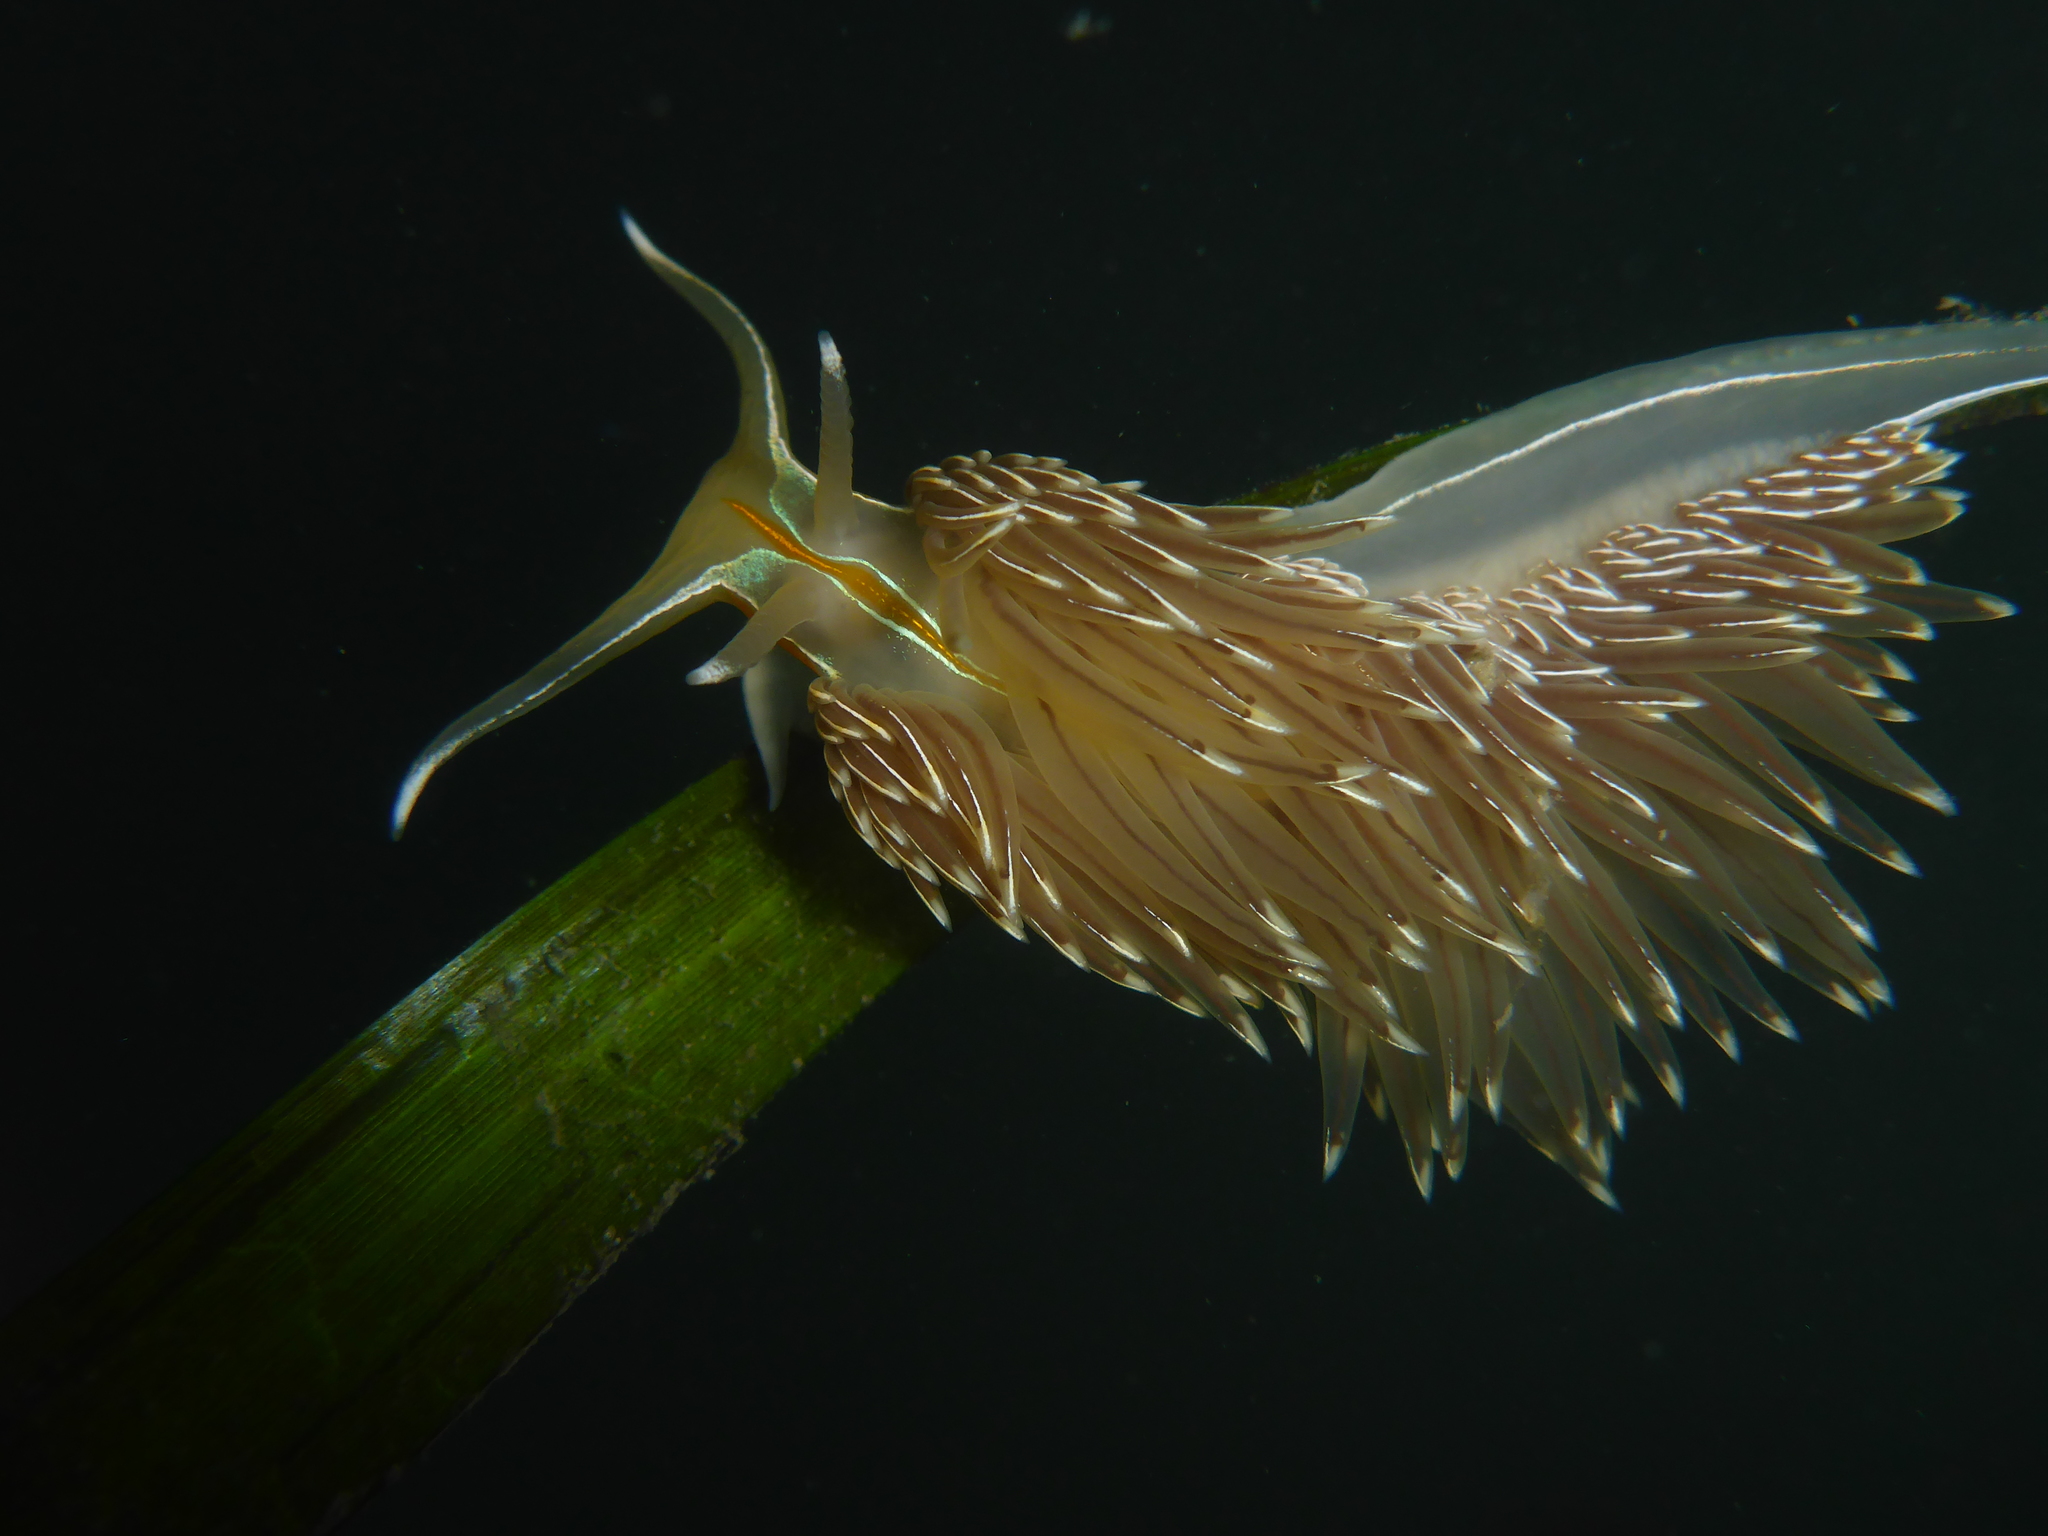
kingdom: Animalia
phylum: Mollusca
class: Gastropoda
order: Nudibranchia
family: Myrrhinidae
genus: Hermissenda
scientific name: Hermissenda crassicornis
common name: Hermissenda
